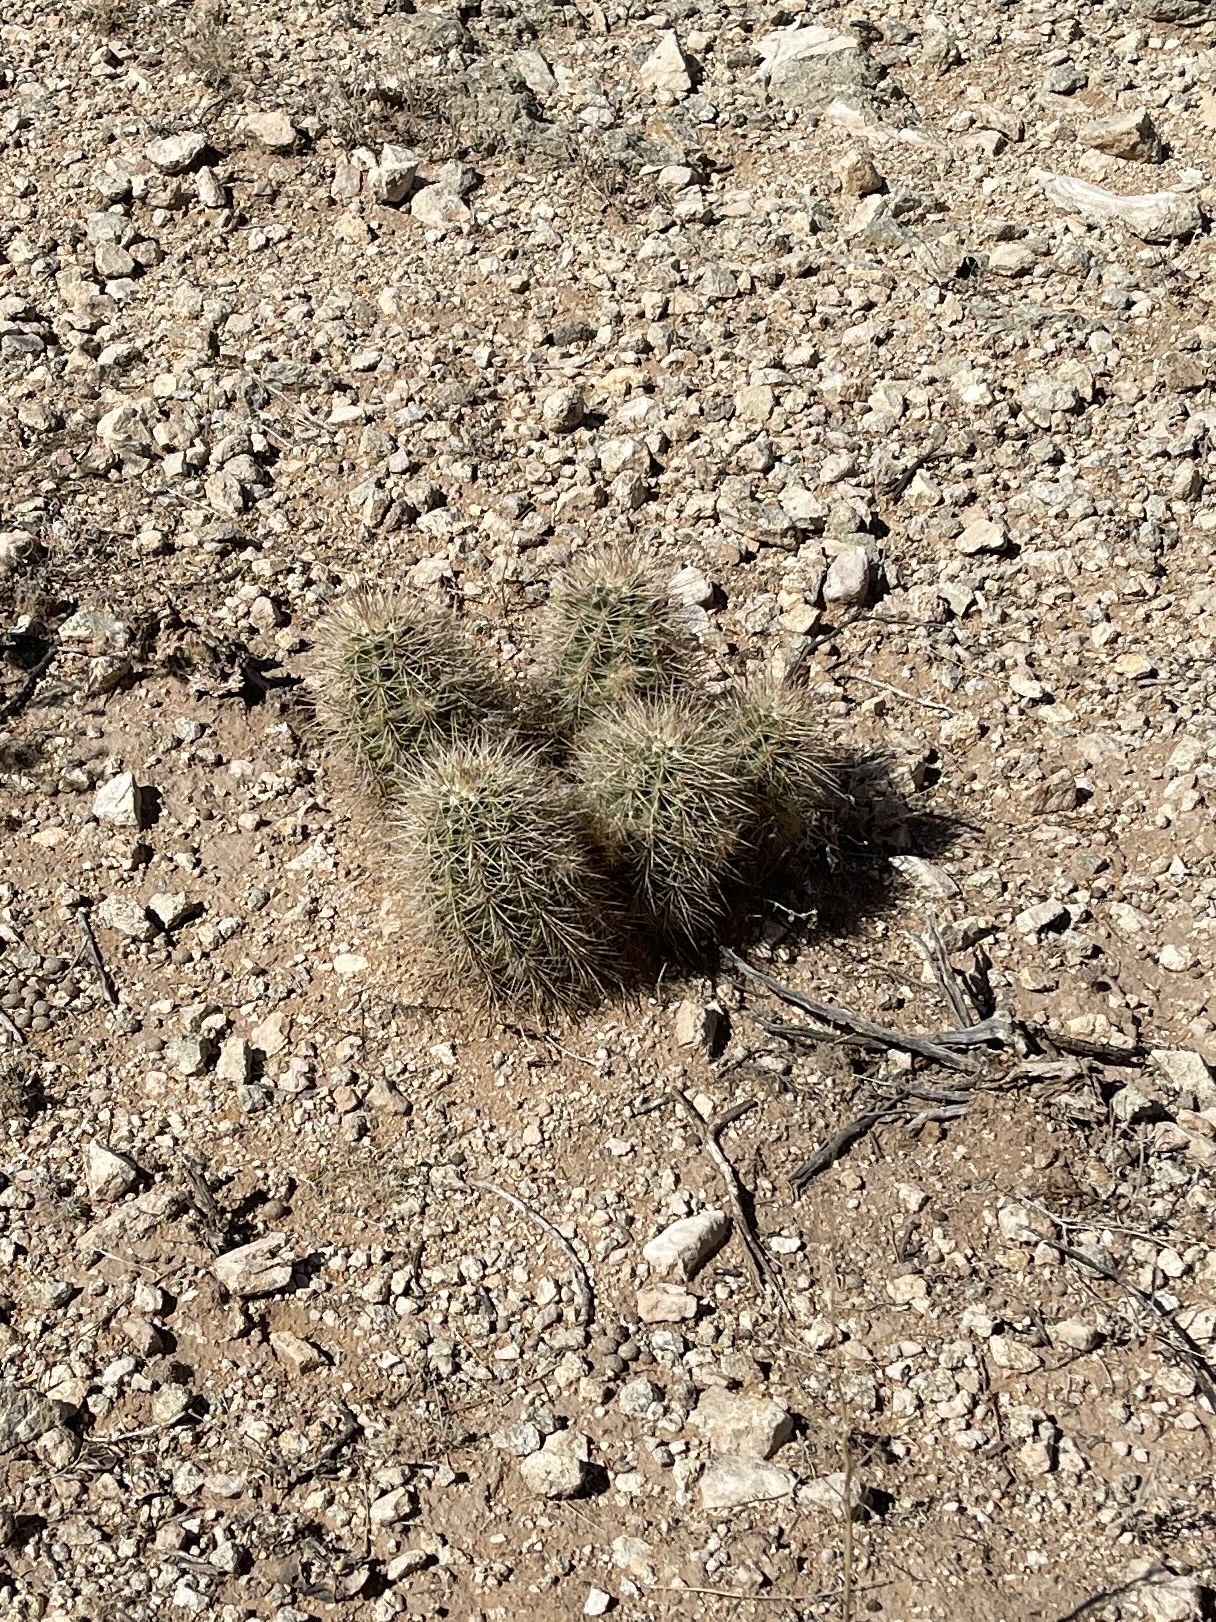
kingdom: Plantae
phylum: Tracheophyta
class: Magnoliopsida
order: Caryophyllales
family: Cactaceae
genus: Echinocereus
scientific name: Echinocereus coccineus
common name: Scarlet hedgehog cactus
